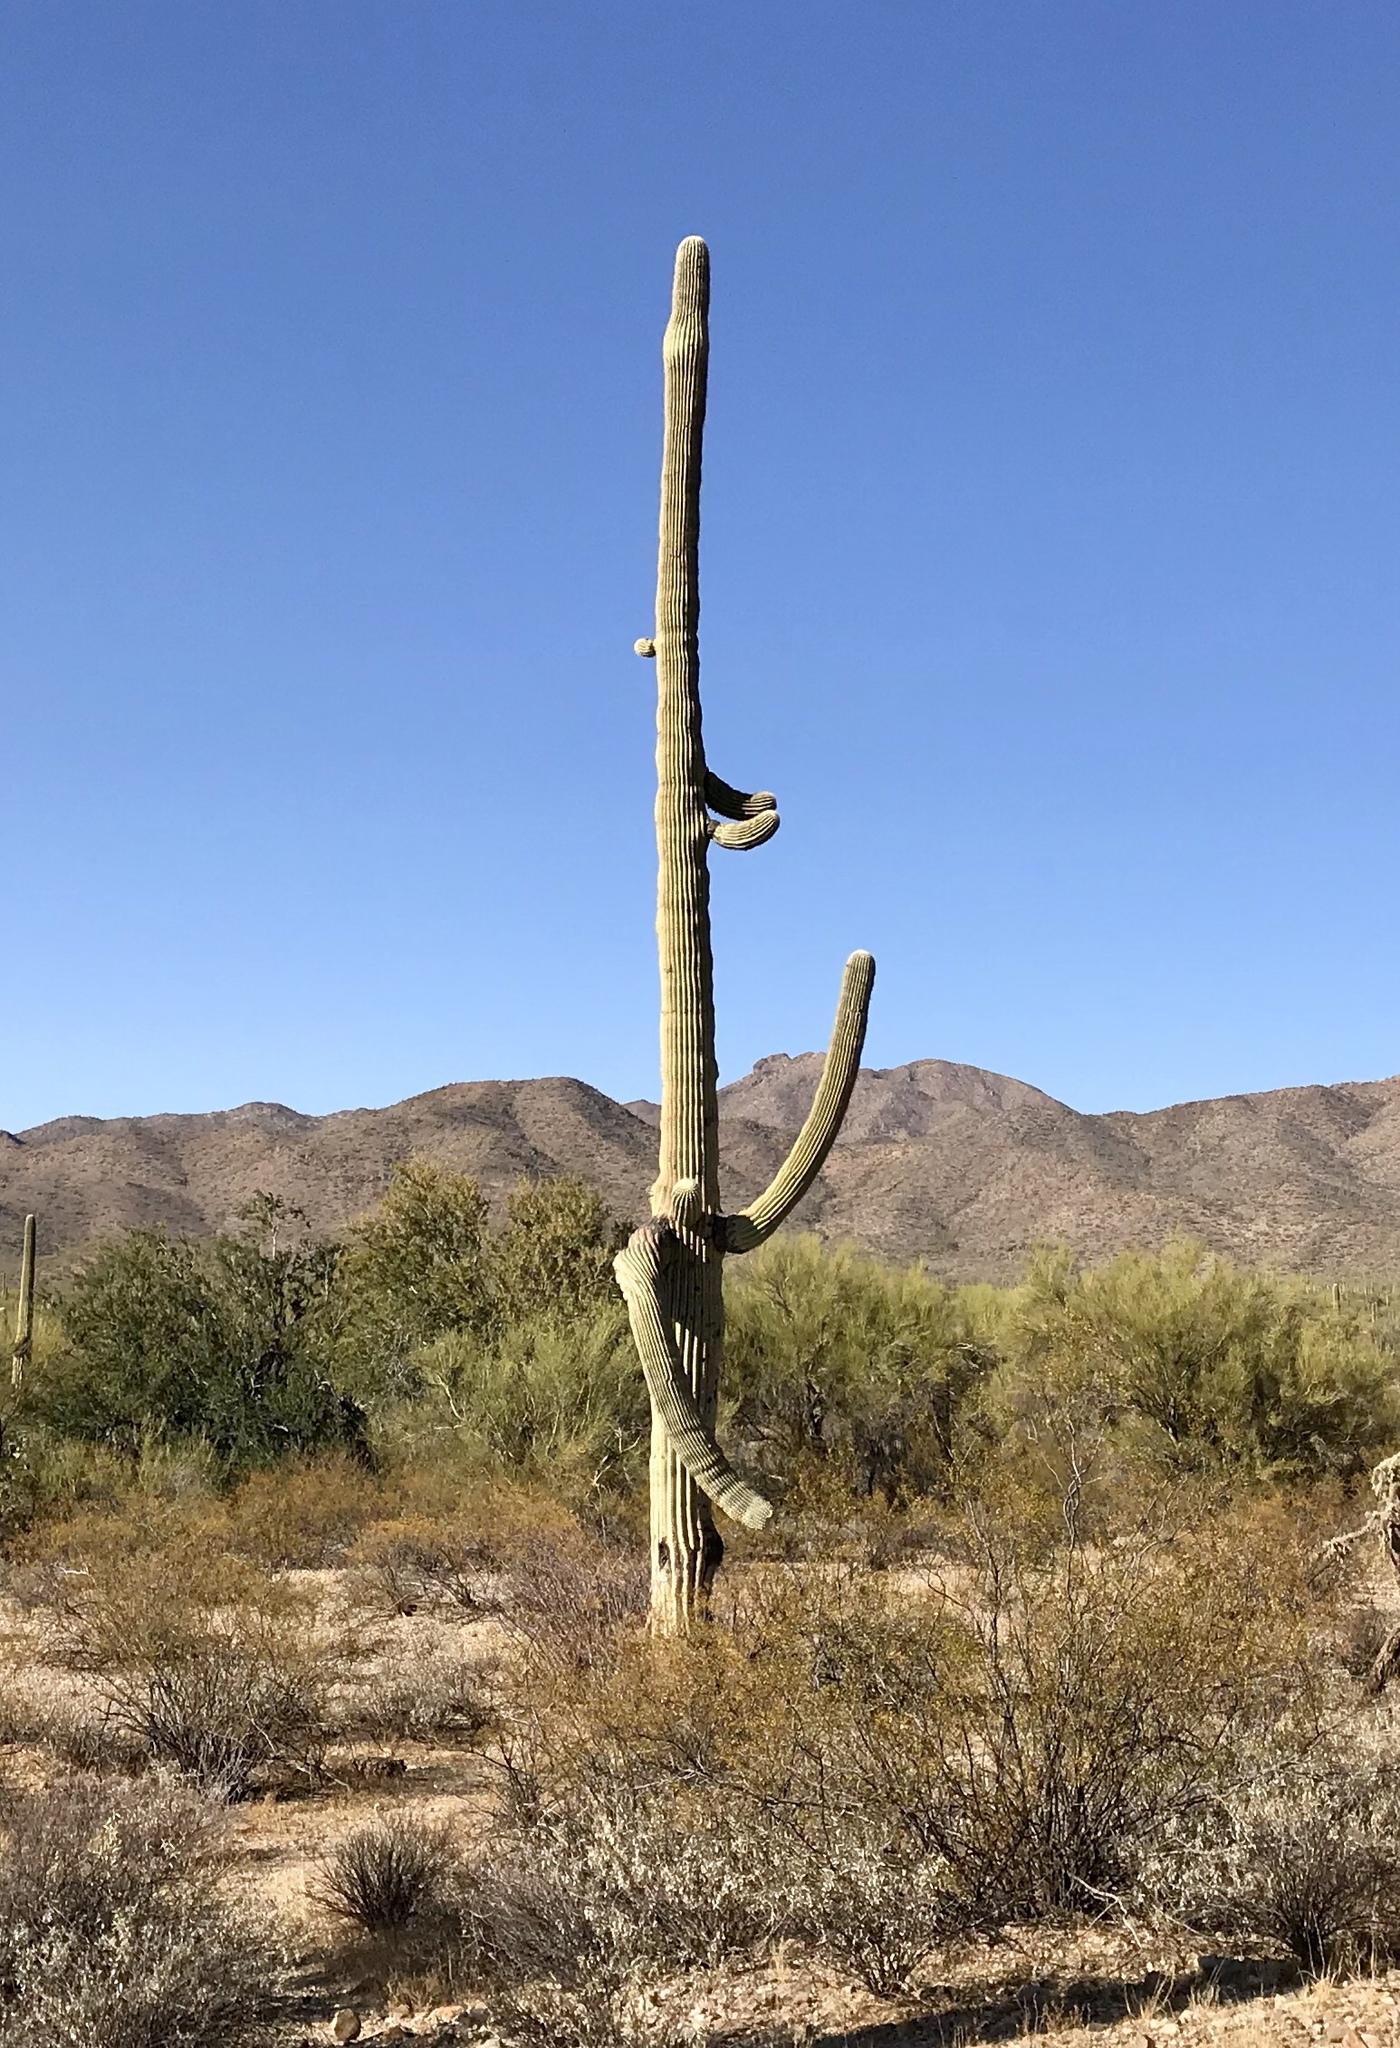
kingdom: Plantae
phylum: Tracheophyta
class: Magnoliopsida
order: Caryophyllales
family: Cactaceae
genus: Carnegiea
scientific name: Carnegiea gigantea
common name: Saguaro
